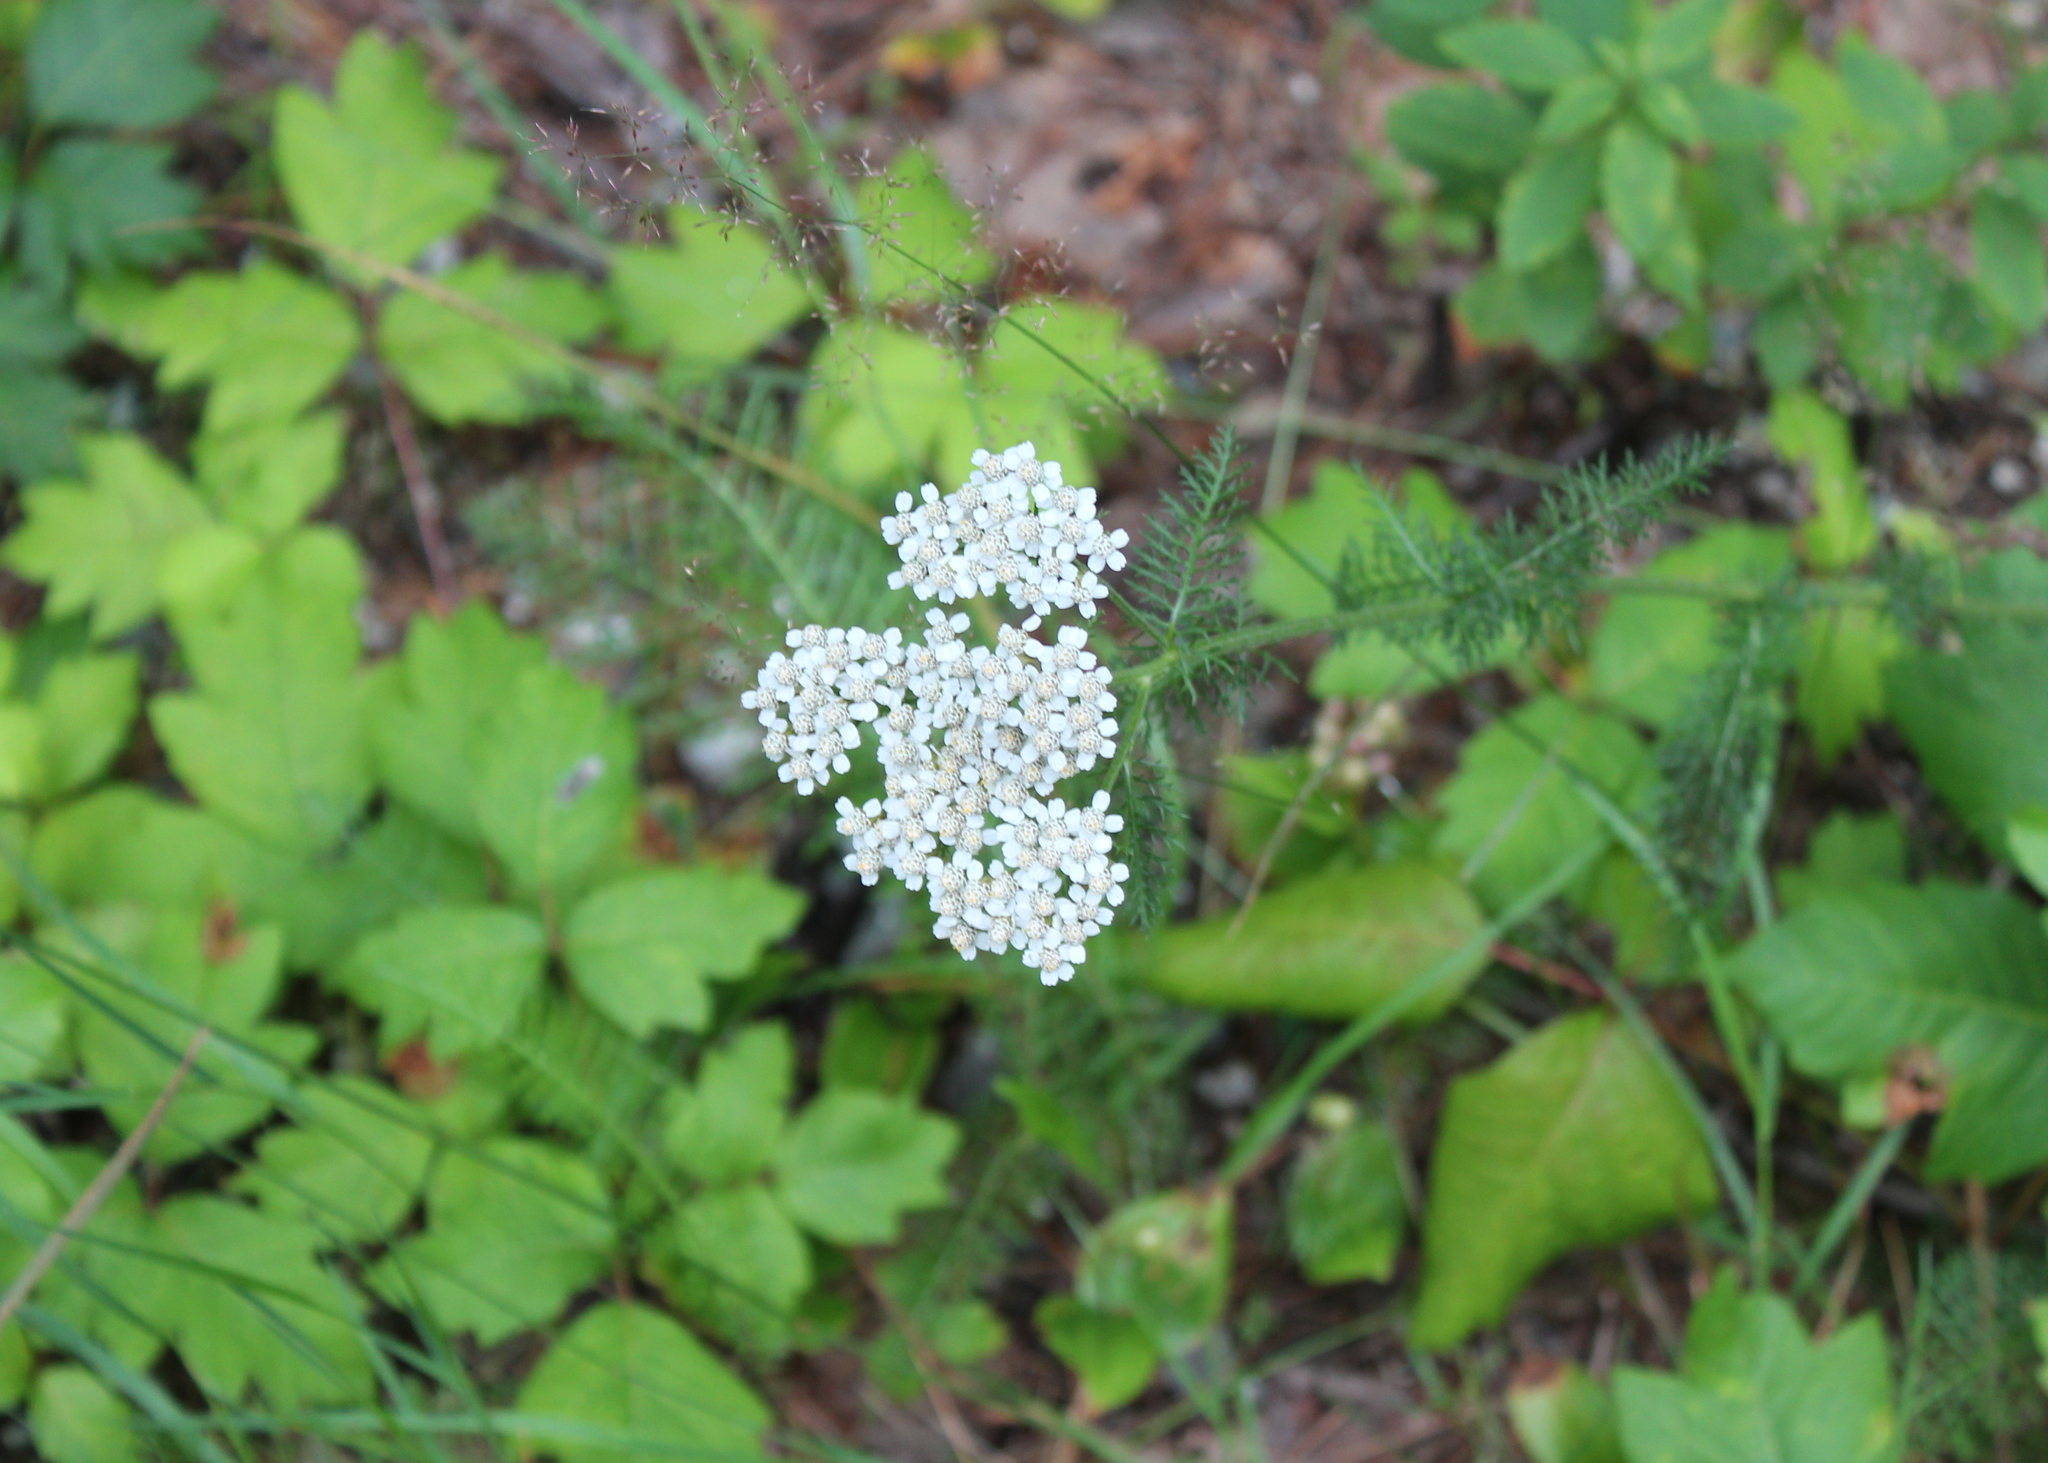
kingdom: Plantae
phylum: Tracheophyta
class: Magnoliopsida
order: Asterales
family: Asteraceae
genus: Achillea
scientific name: Achillea millefolium
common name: Yarrow
